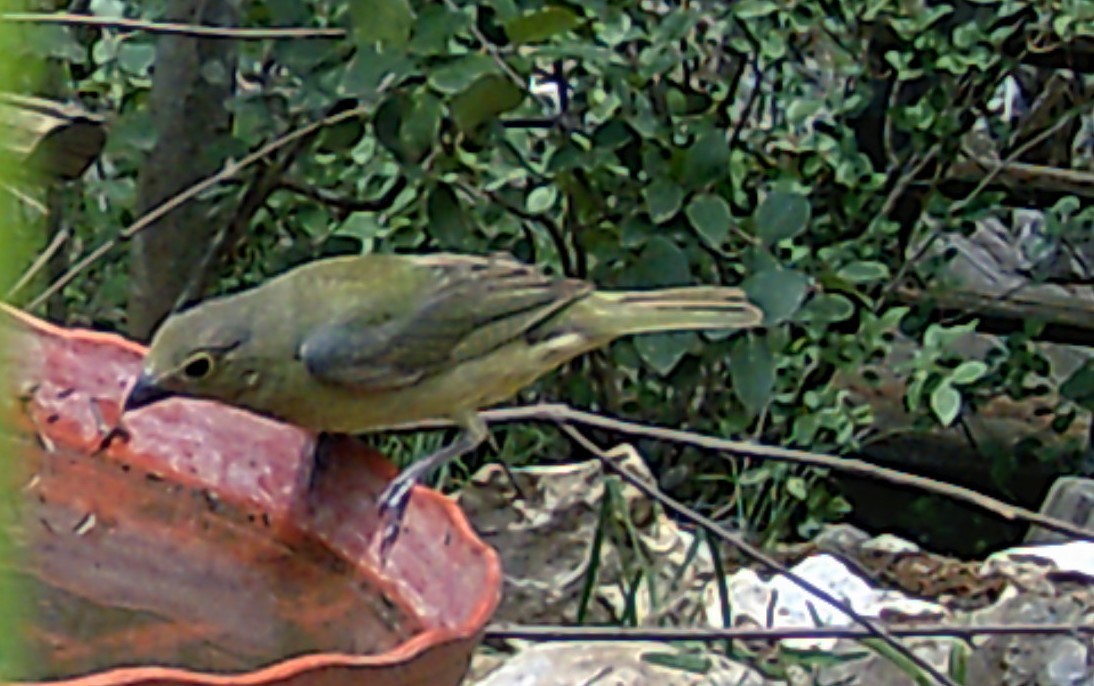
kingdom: Animalia
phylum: Chordata
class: Aves
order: Passeriformes
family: Cardinalidae
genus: Passerina
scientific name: Passerina ciris
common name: Painted bunting
